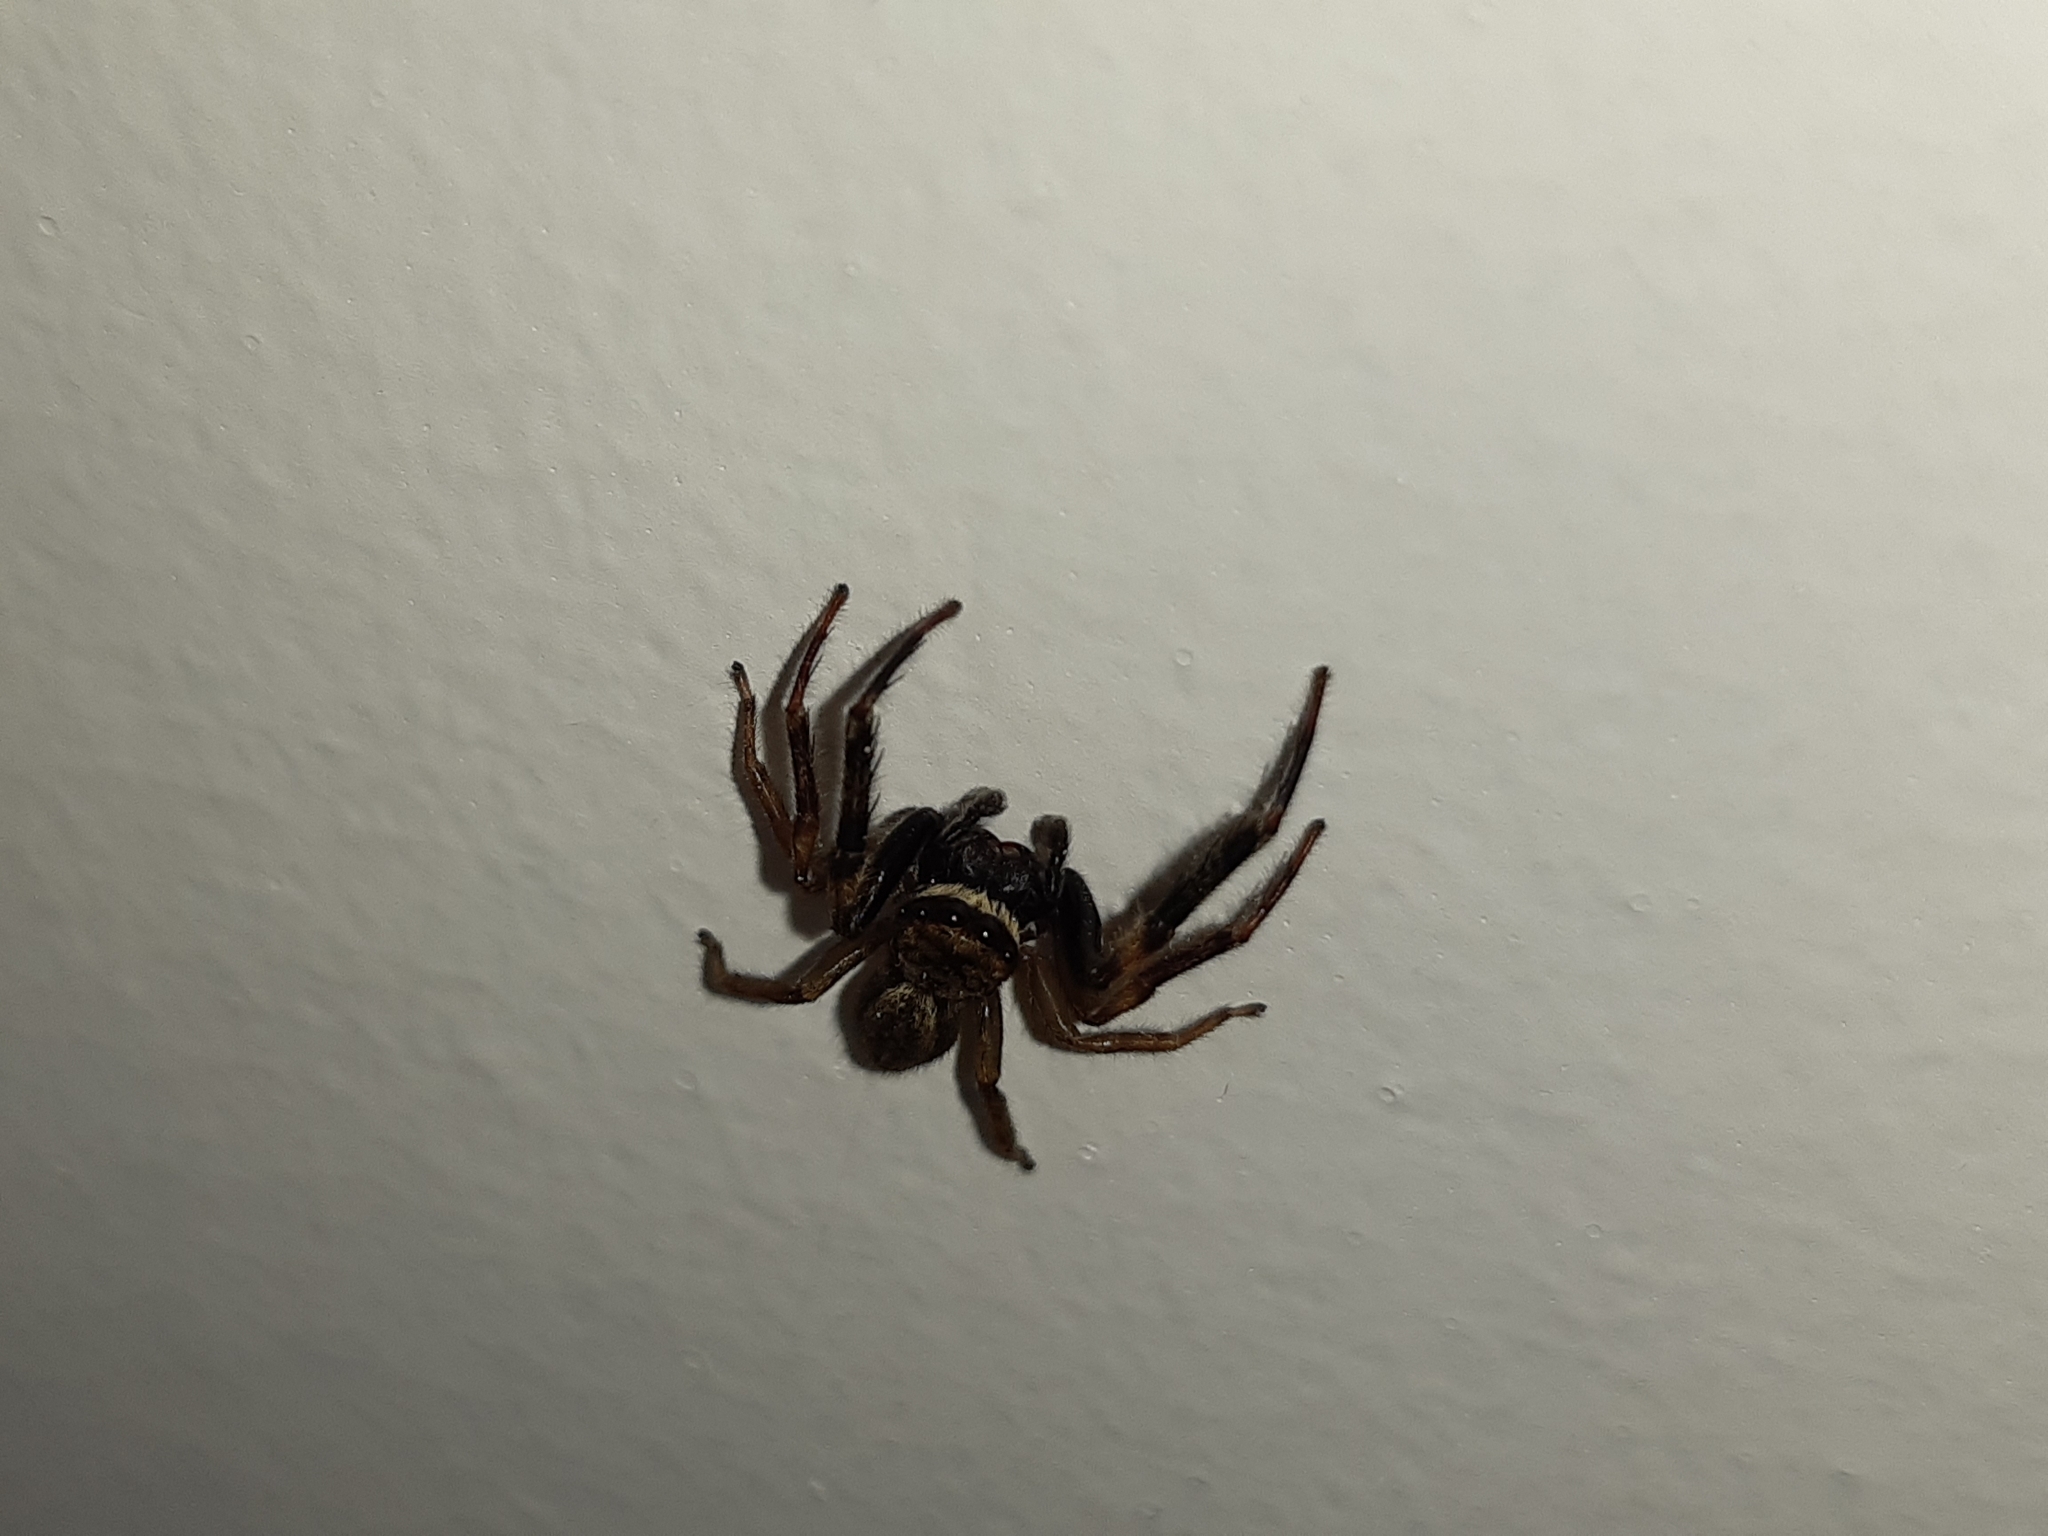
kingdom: Animalia
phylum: Arthropoda
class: Arachnida
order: Araneae
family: Salticidae
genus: Trite
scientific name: Trite auricoma
